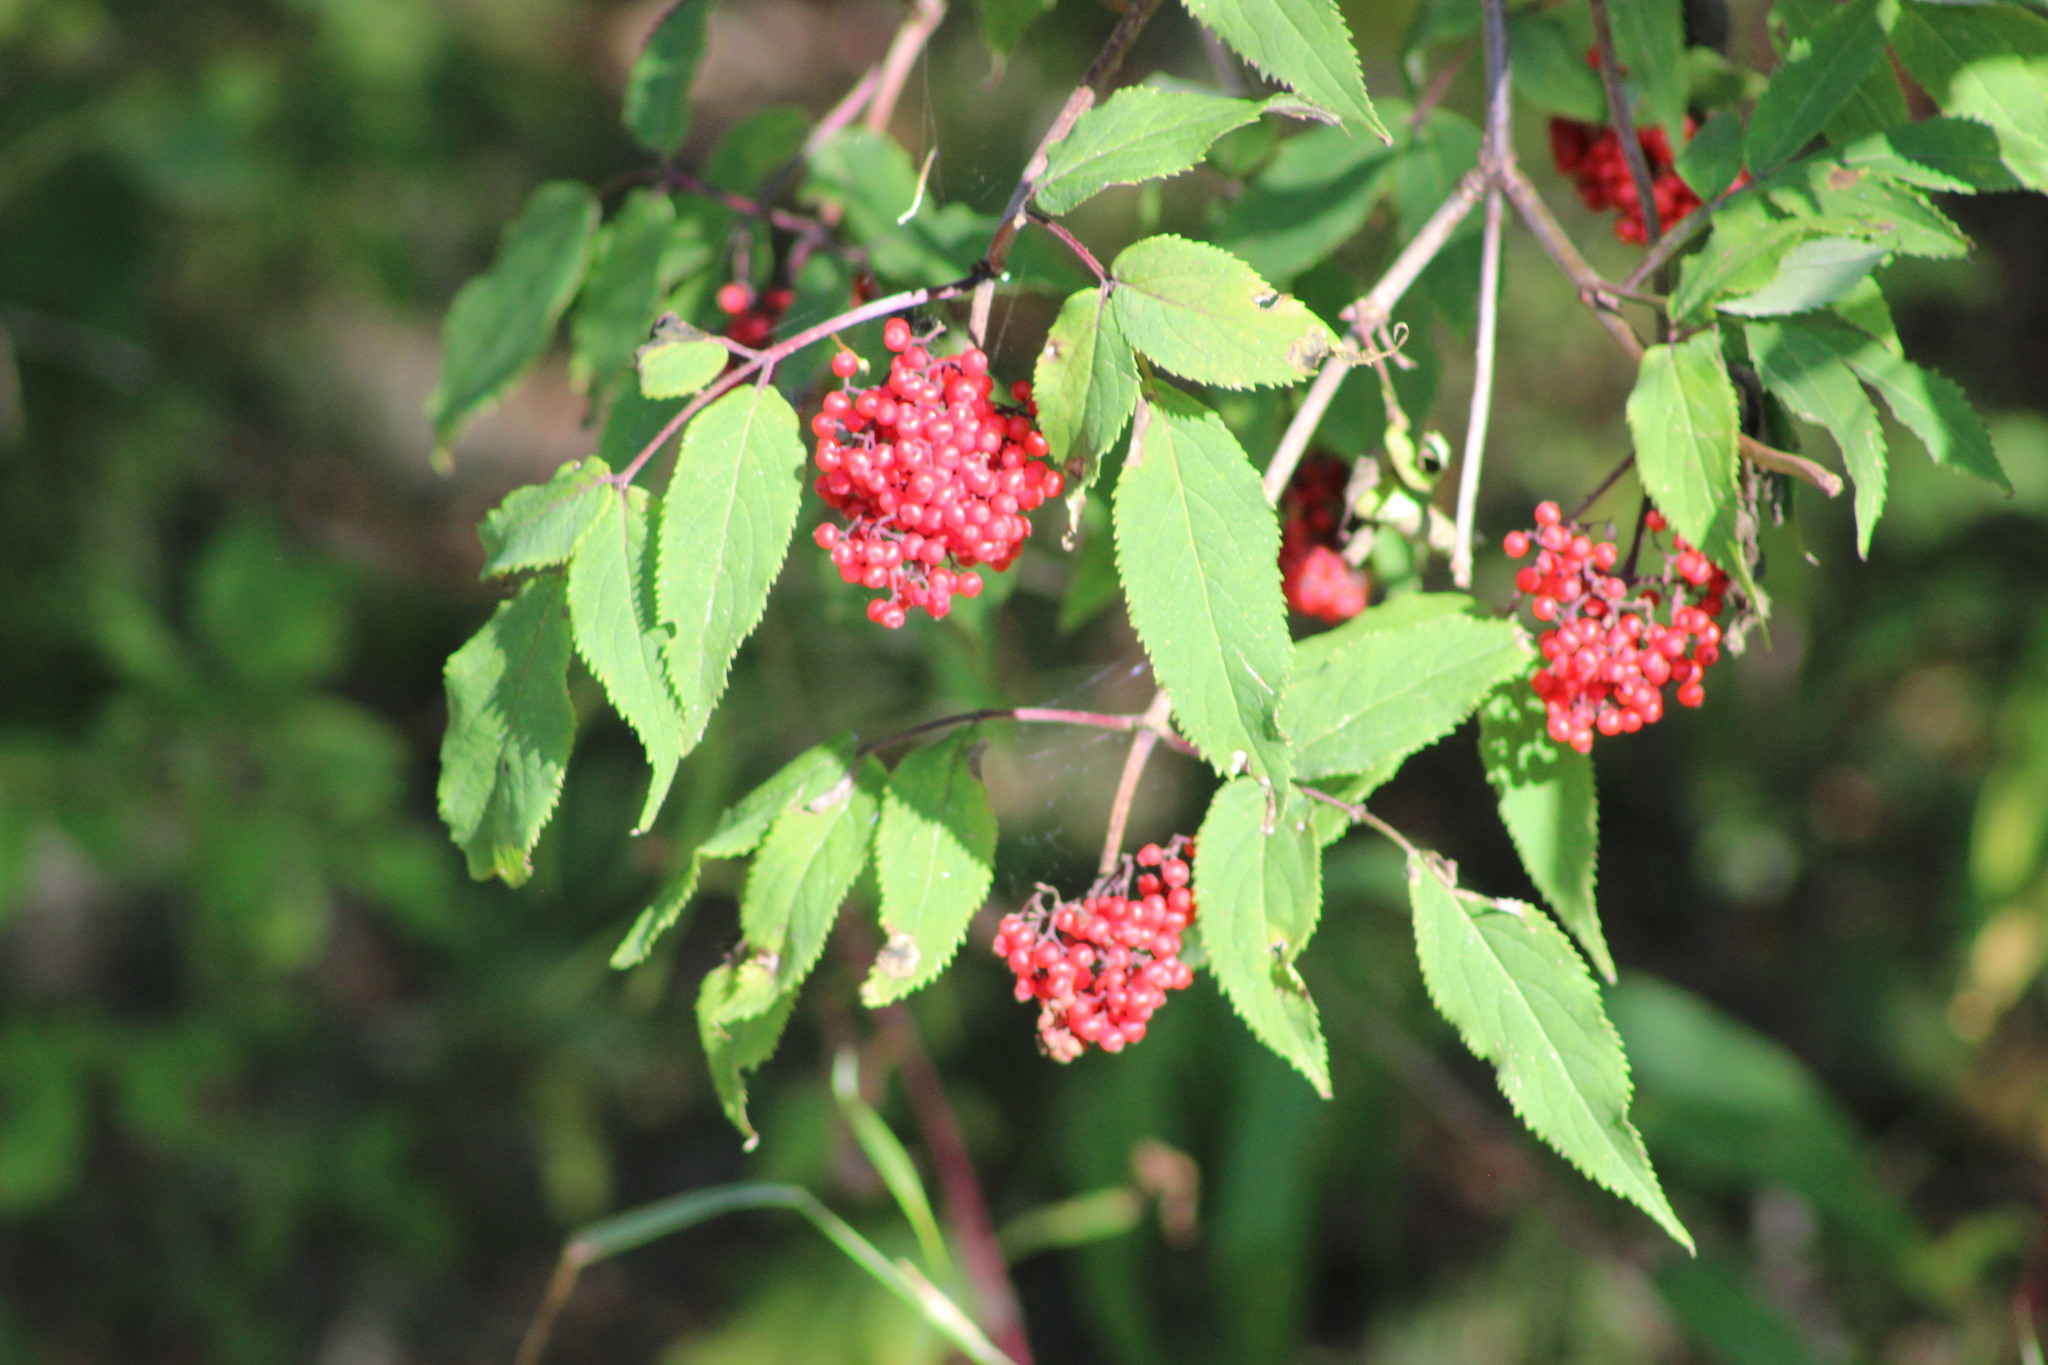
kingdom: Plantae
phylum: Tracheophyta
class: Magnoliopsida
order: Dipsacales
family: Viburnaceae
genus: Sambucus
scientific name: Sambucus sibirica
